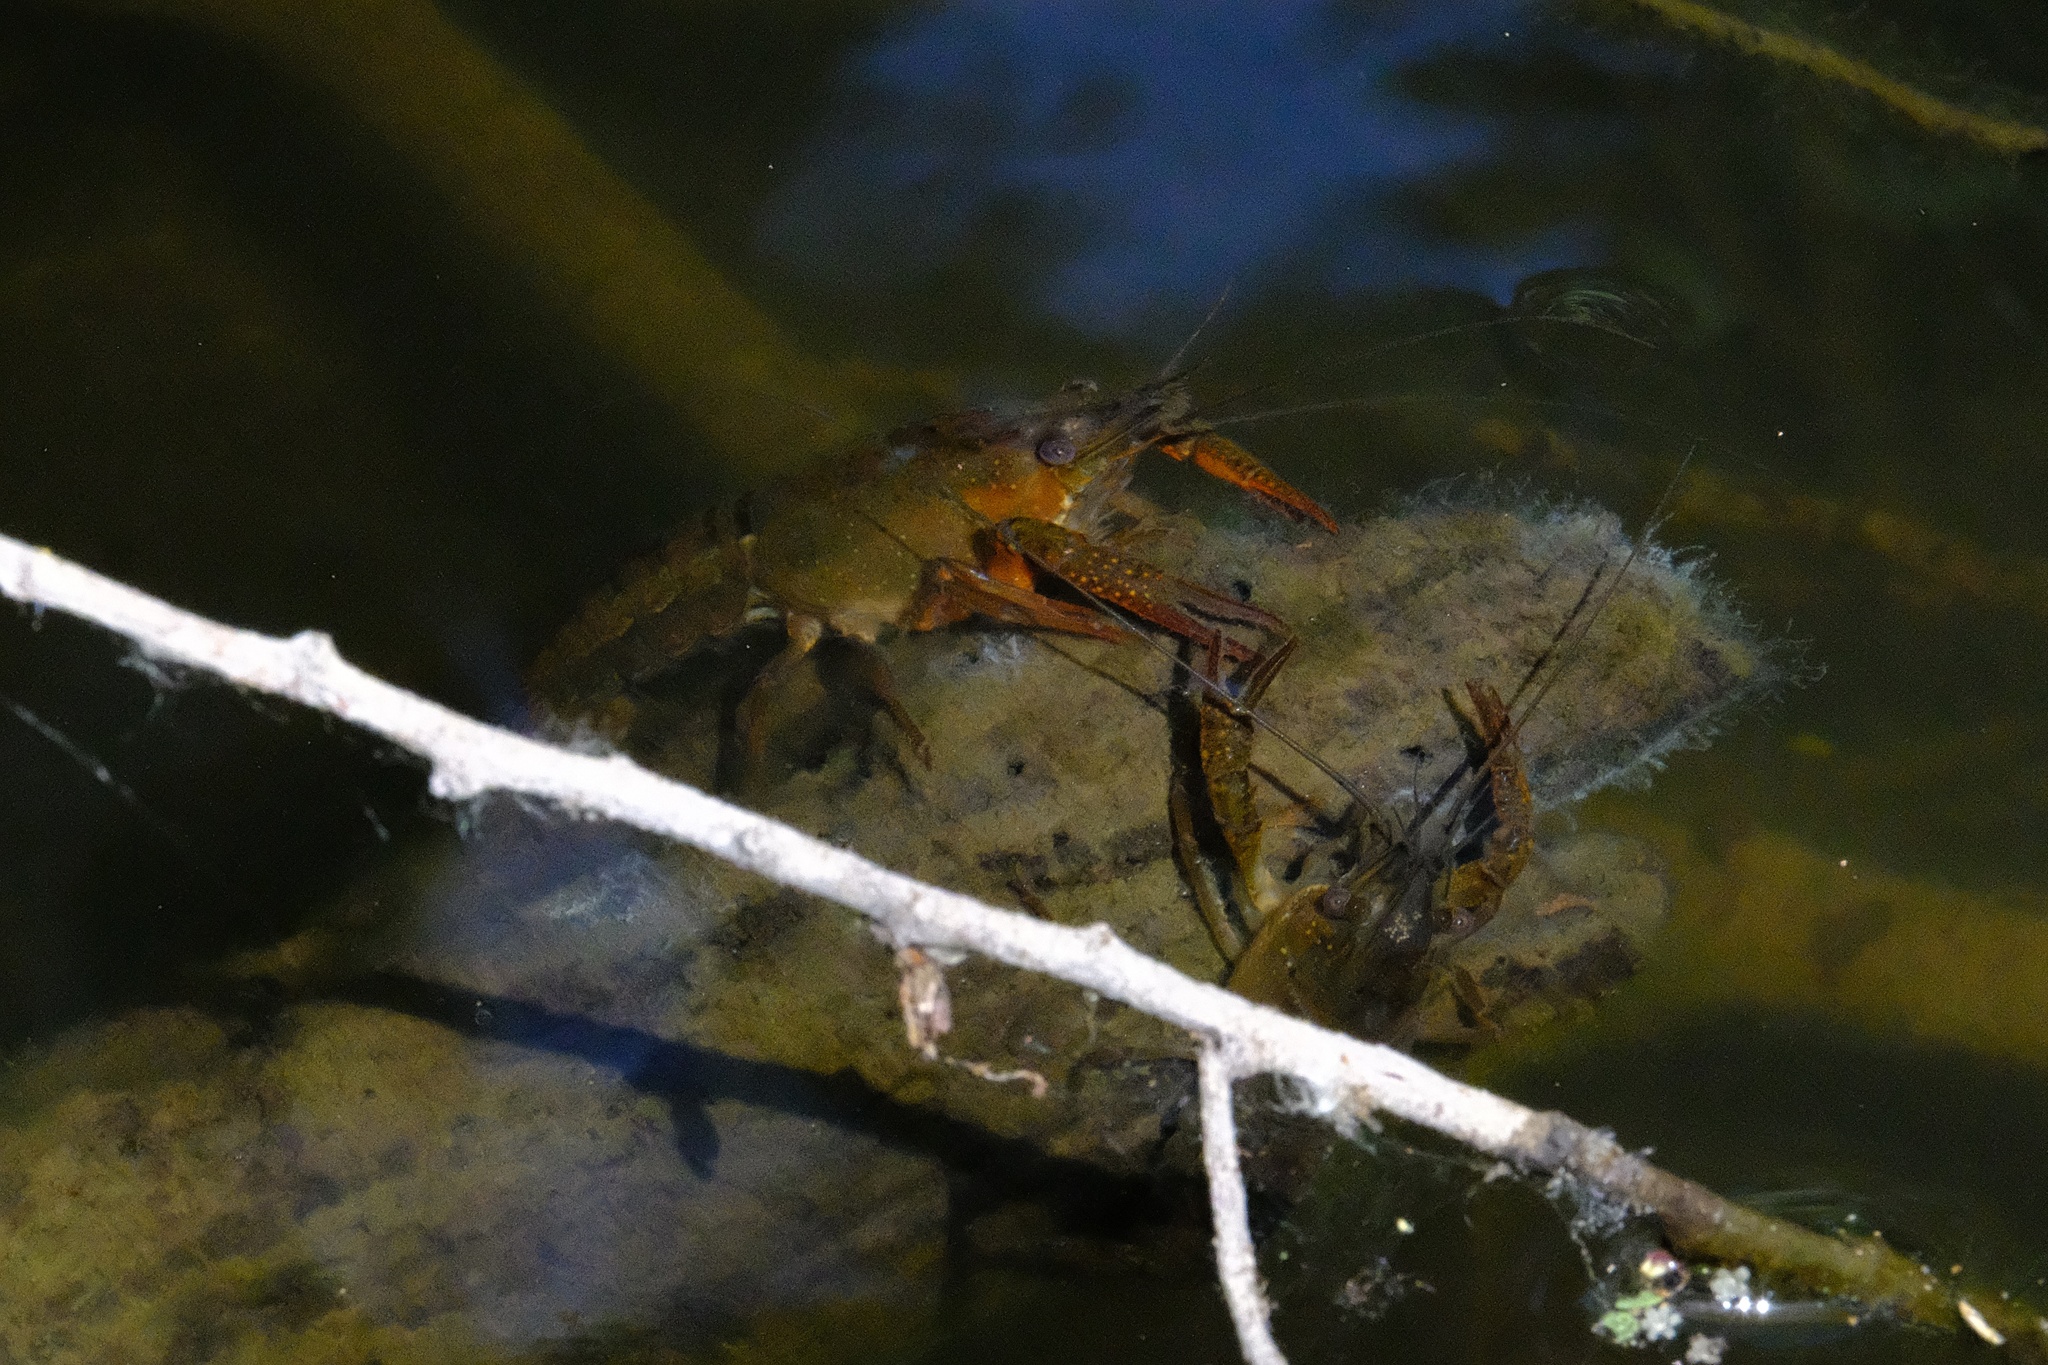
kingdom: Animalia
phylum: Arthropoda
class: Malacostraca
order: Decapoda
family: Cambaridae
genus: Procambarus
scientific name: Procambarus clarkii
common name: Red swamp crayfish
